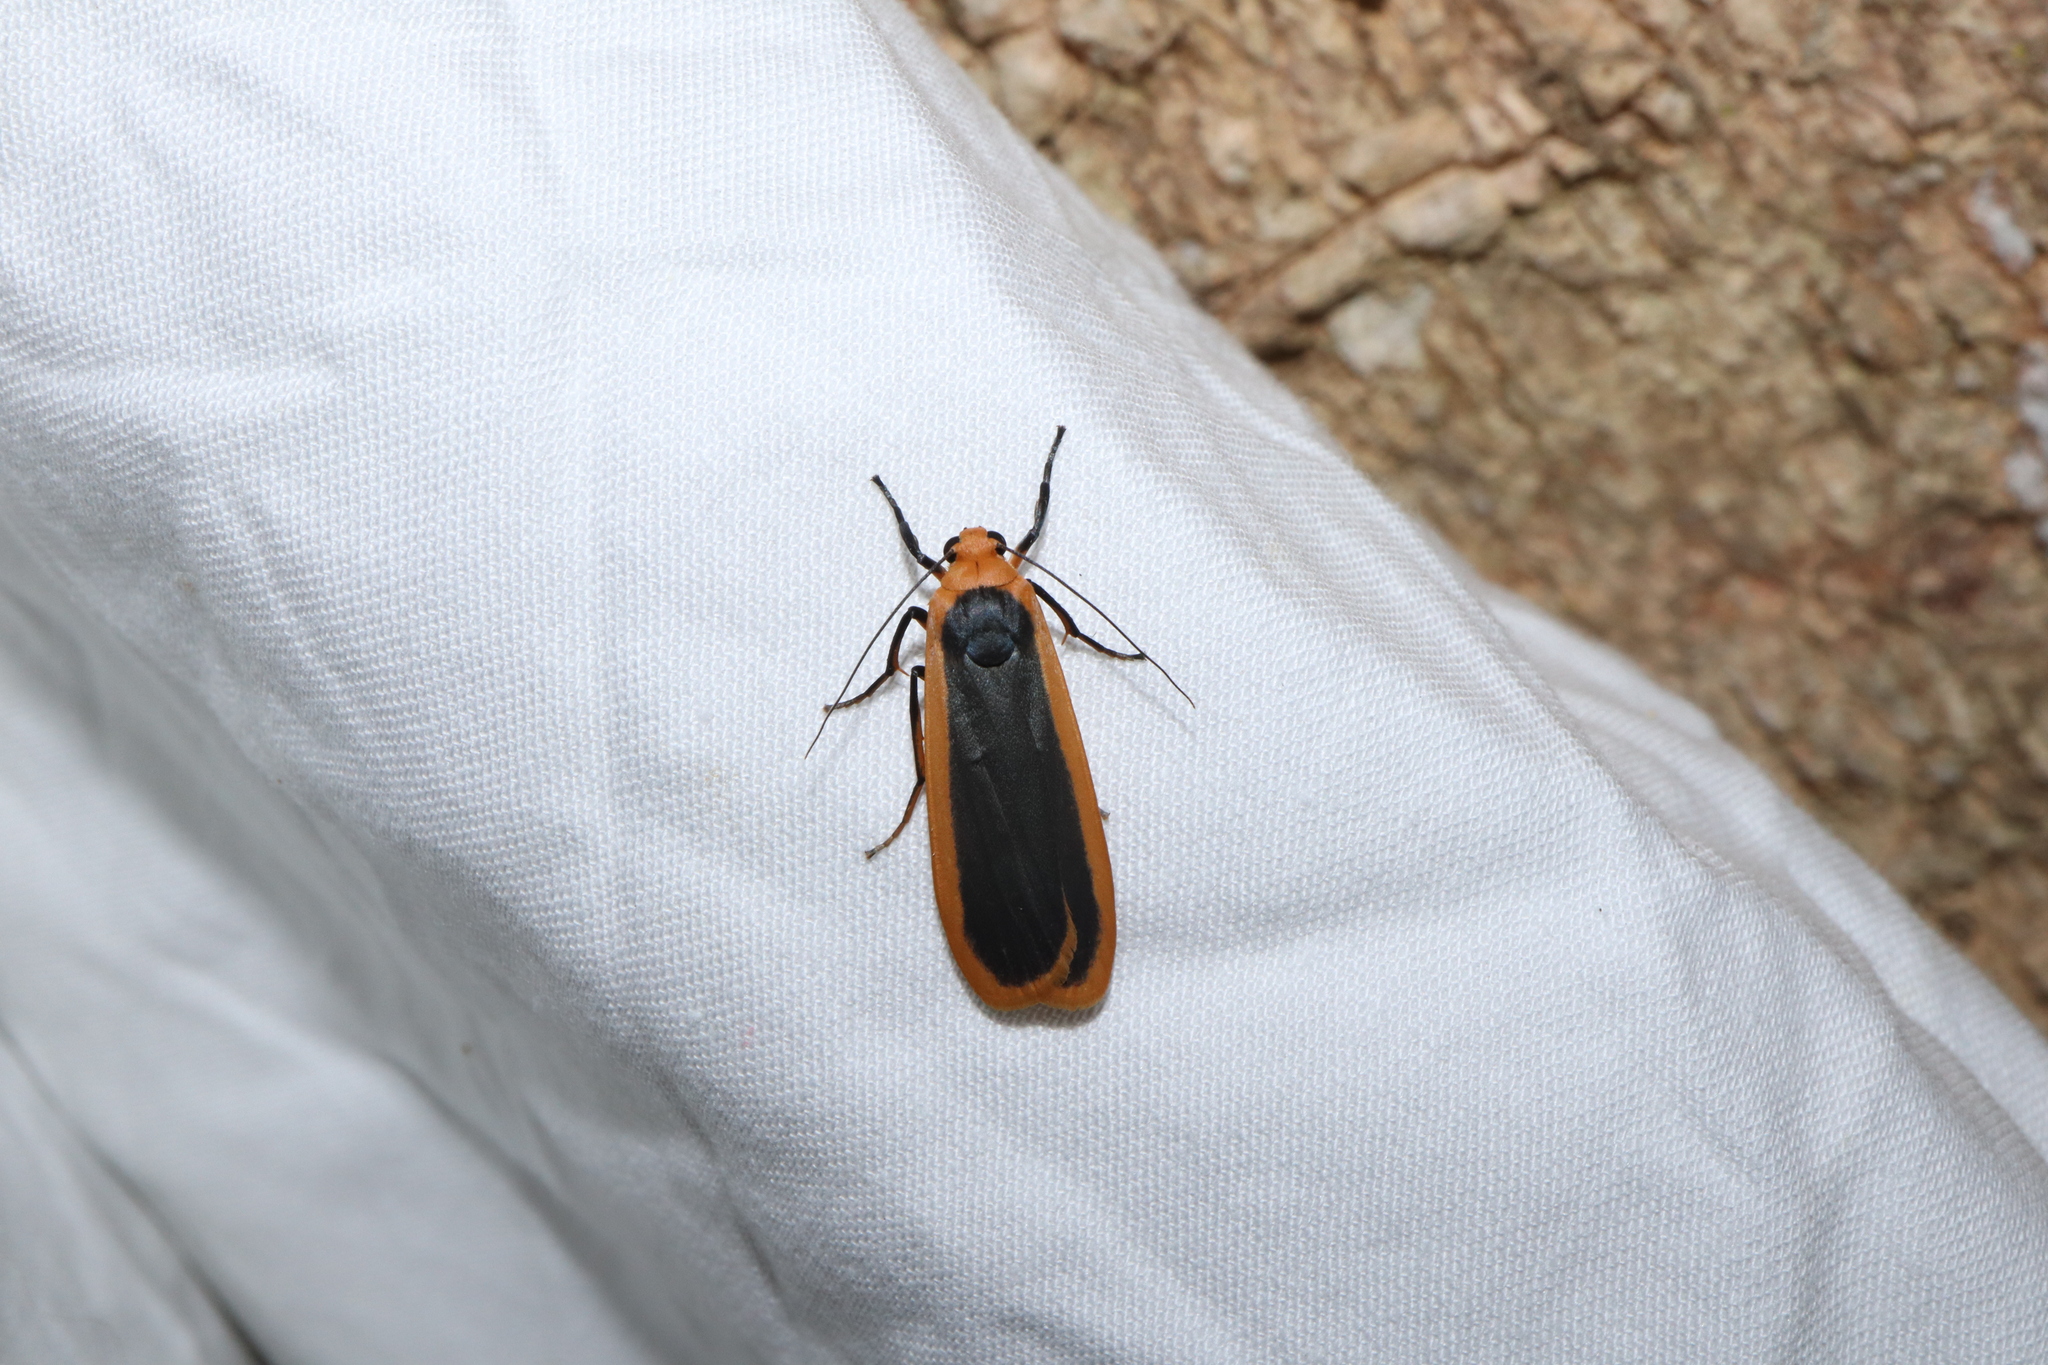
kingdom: Animalia
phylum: Arthropoda
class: Insecta
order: Lepidoptera
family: Erebidae
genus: Brunia
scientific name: Brunia dorsalis
